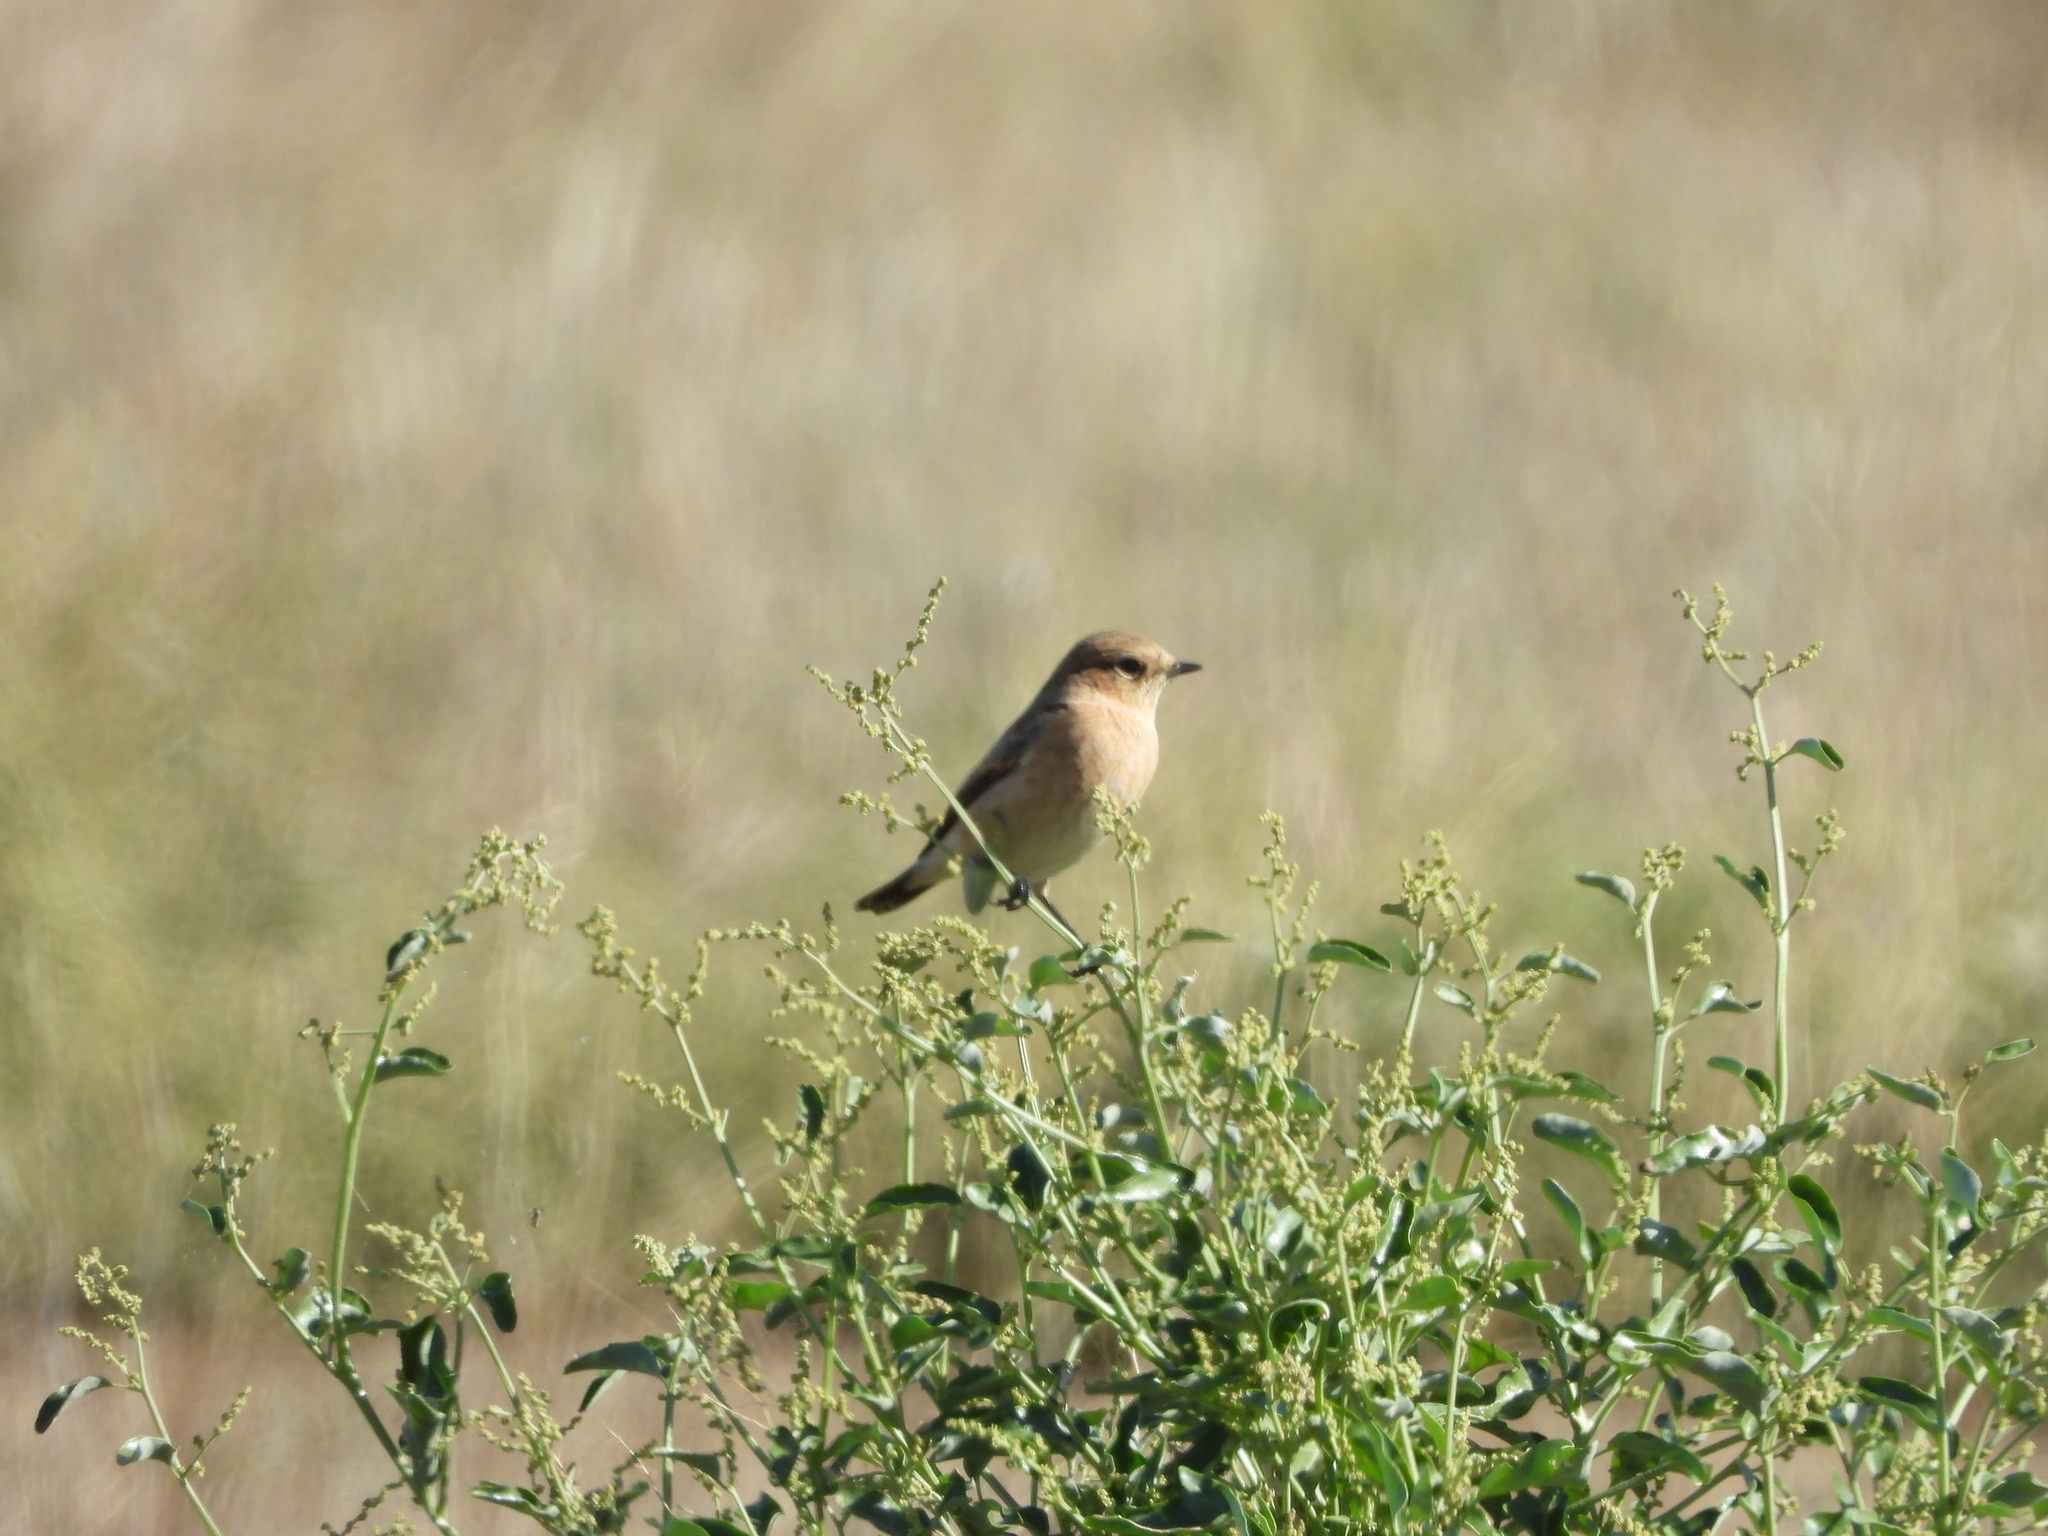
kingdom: Animalia
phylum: Chordata
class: Aves
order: Passeriformes
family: Muscicapidae
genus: Saxicola
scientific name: Saxicola maurus
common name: Siberian stonechat
